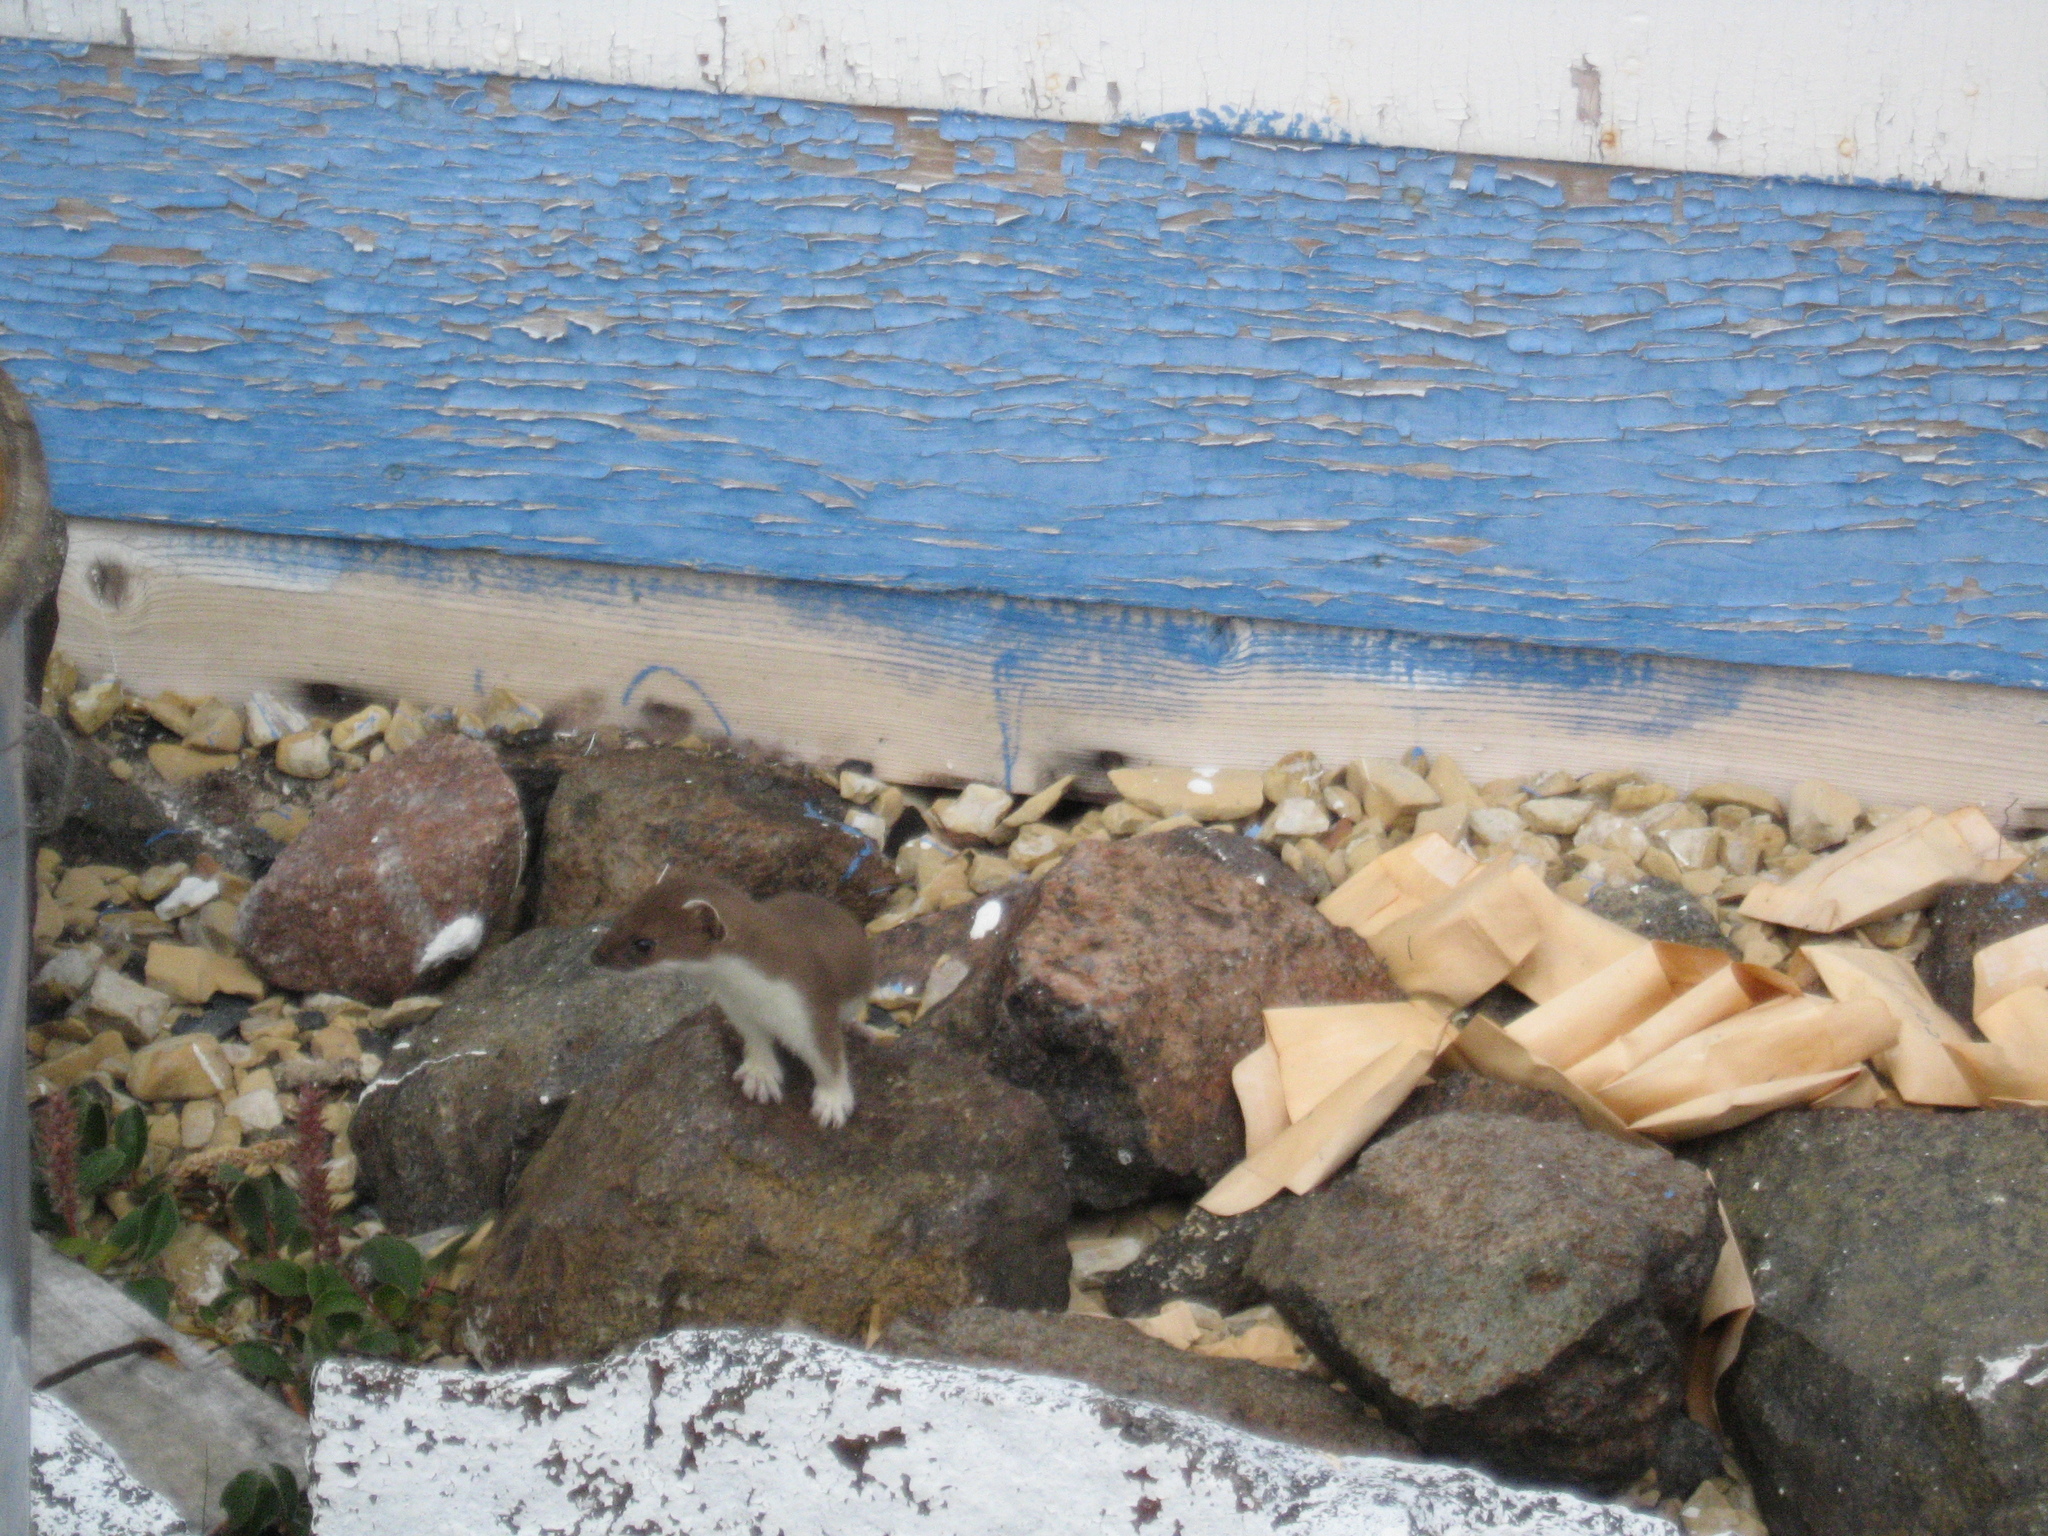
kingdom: Animalia
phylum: Chordata
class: Mammalia
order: Carnivora
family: Mustelidae
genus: Mustela
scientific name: Mustela erminea
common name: Stoat
